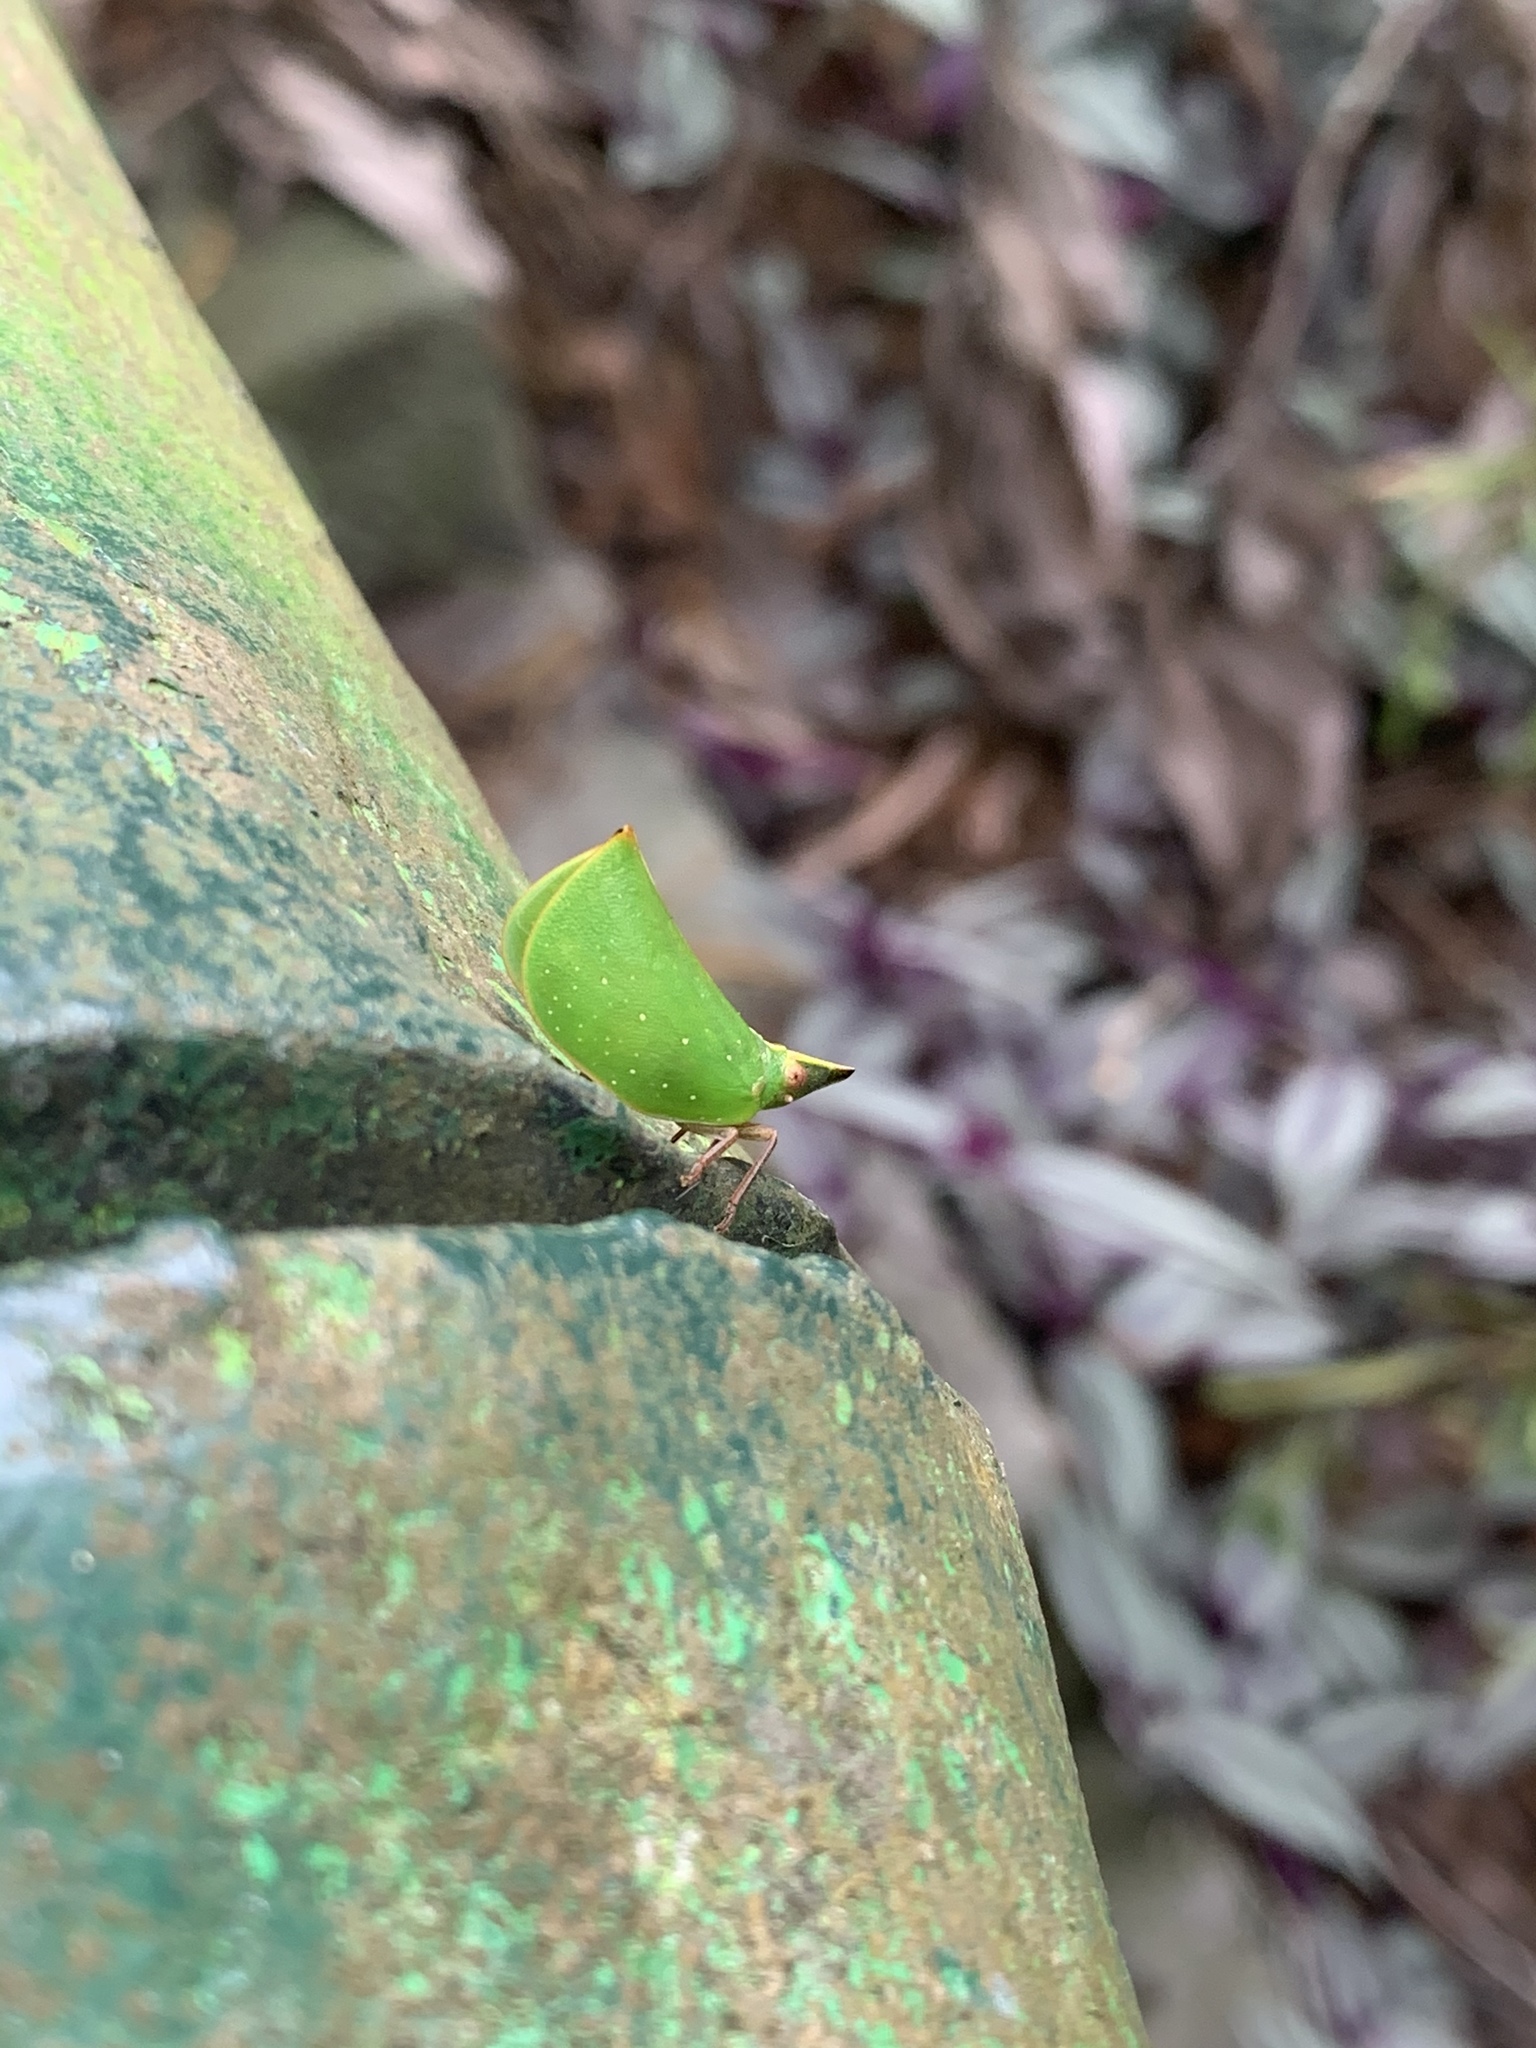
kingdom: Animalia
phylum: Arthropoda
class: Insecta
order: Hemiptera
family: Nogodinidae
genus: Tonga
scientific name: Tonga westwoodi
